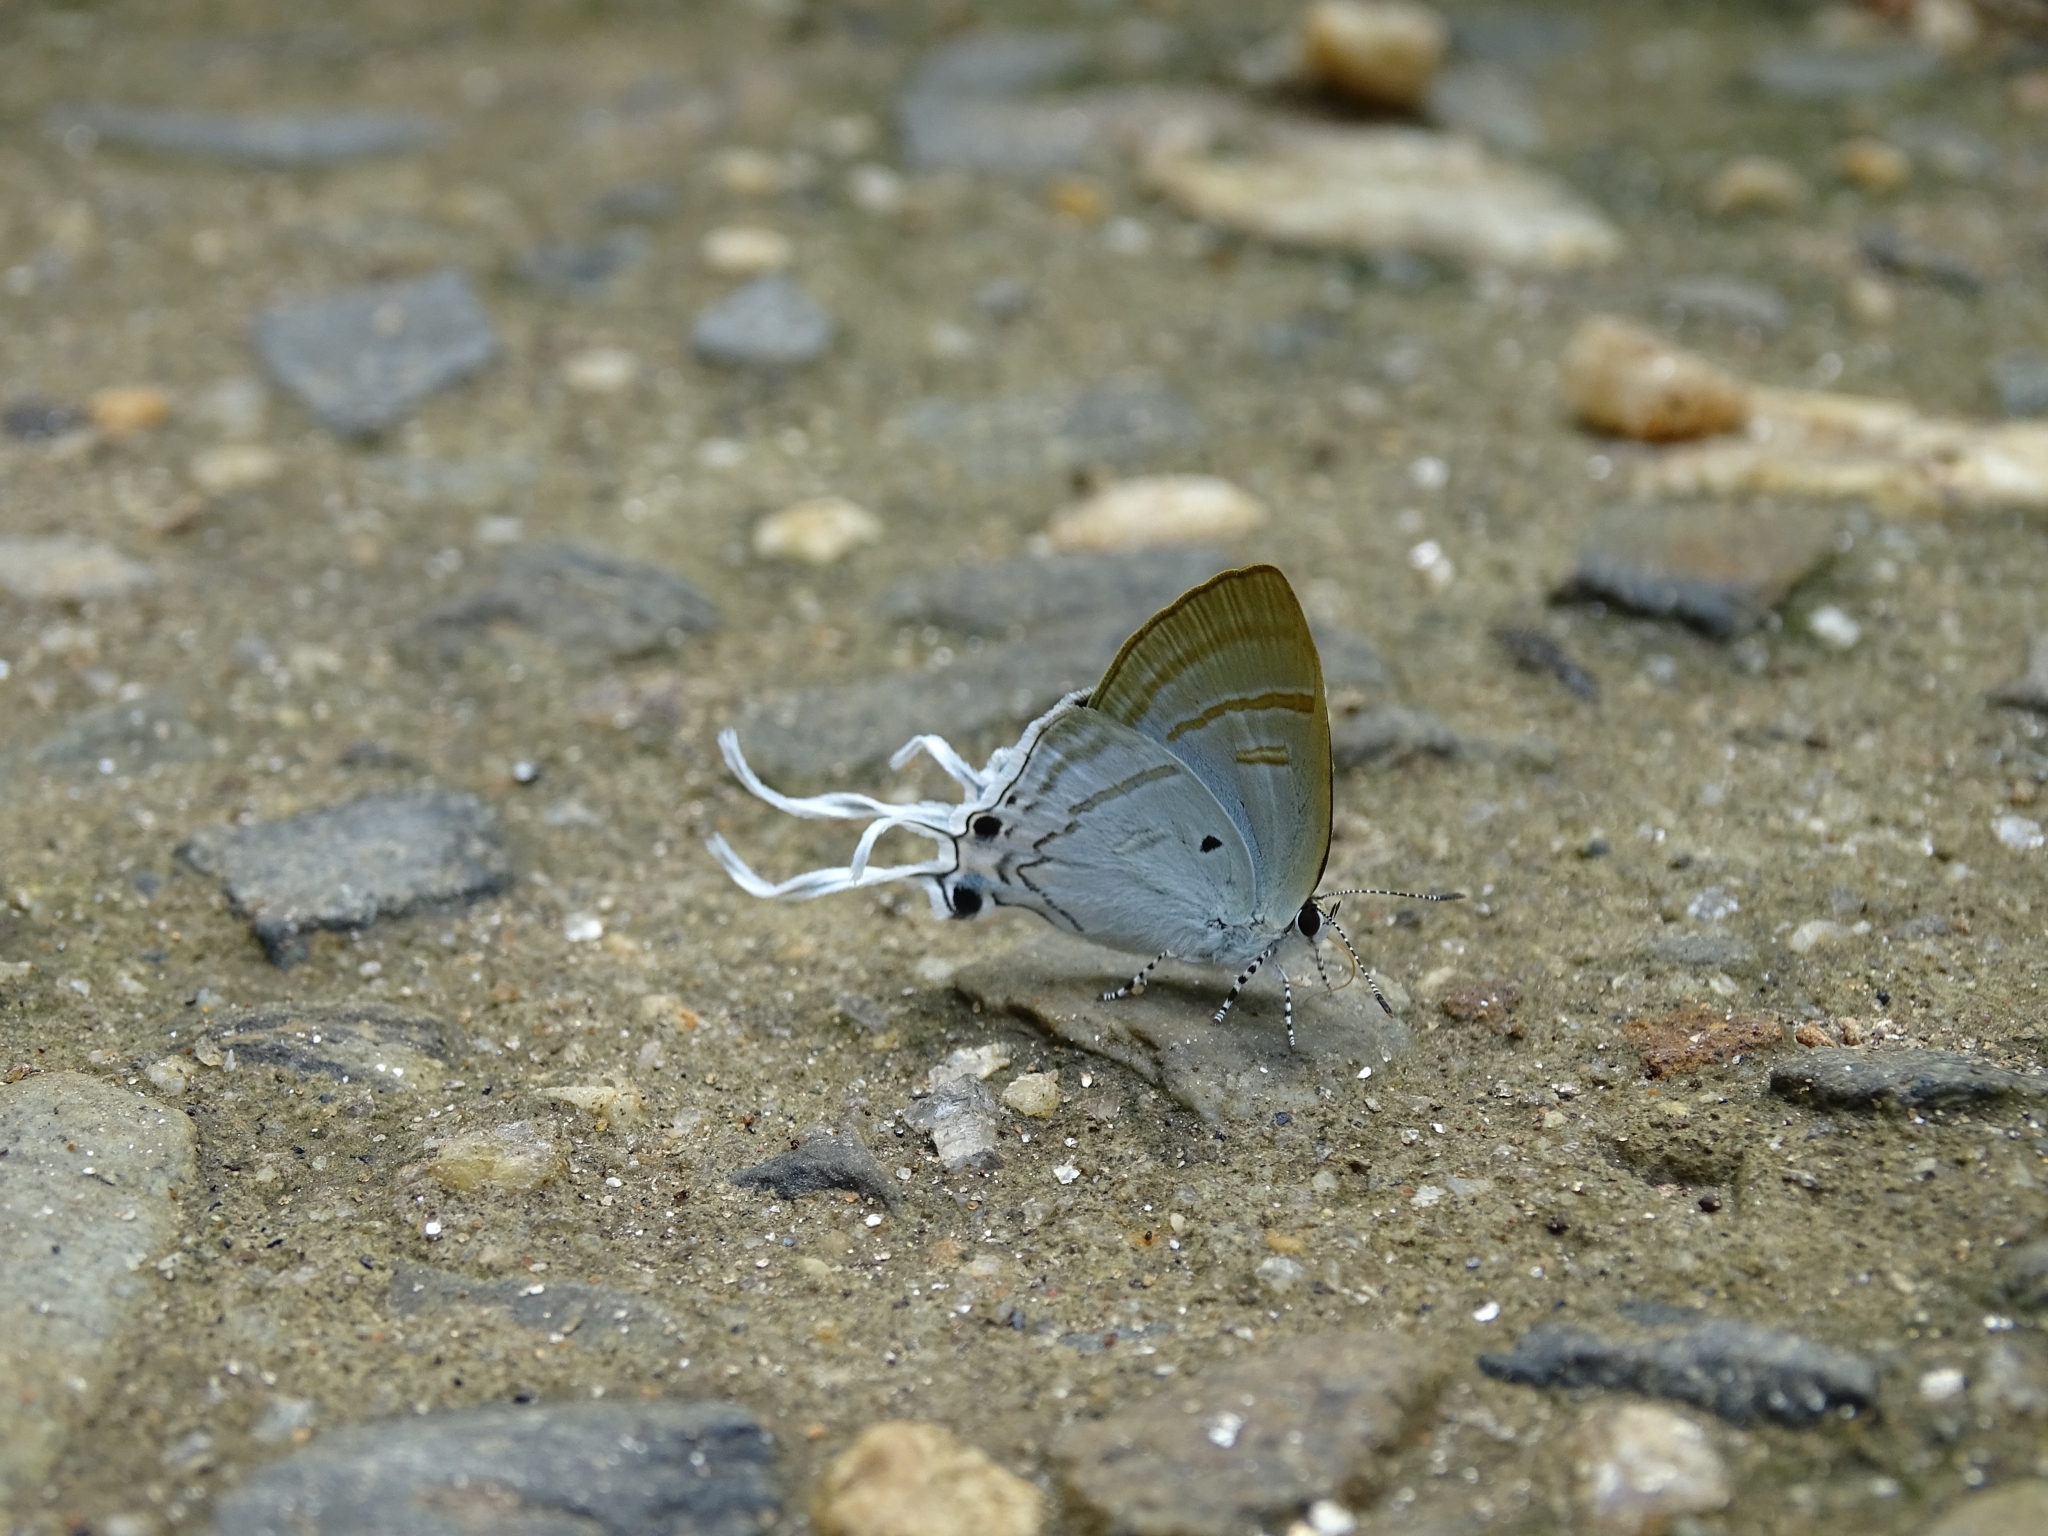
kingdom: Animalia
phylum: Arthropoda
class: Insecta
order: Lepidoptera
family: Lycaenidae
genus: Zeltus
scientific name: Zeltus amasa
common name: Fluffy tit
